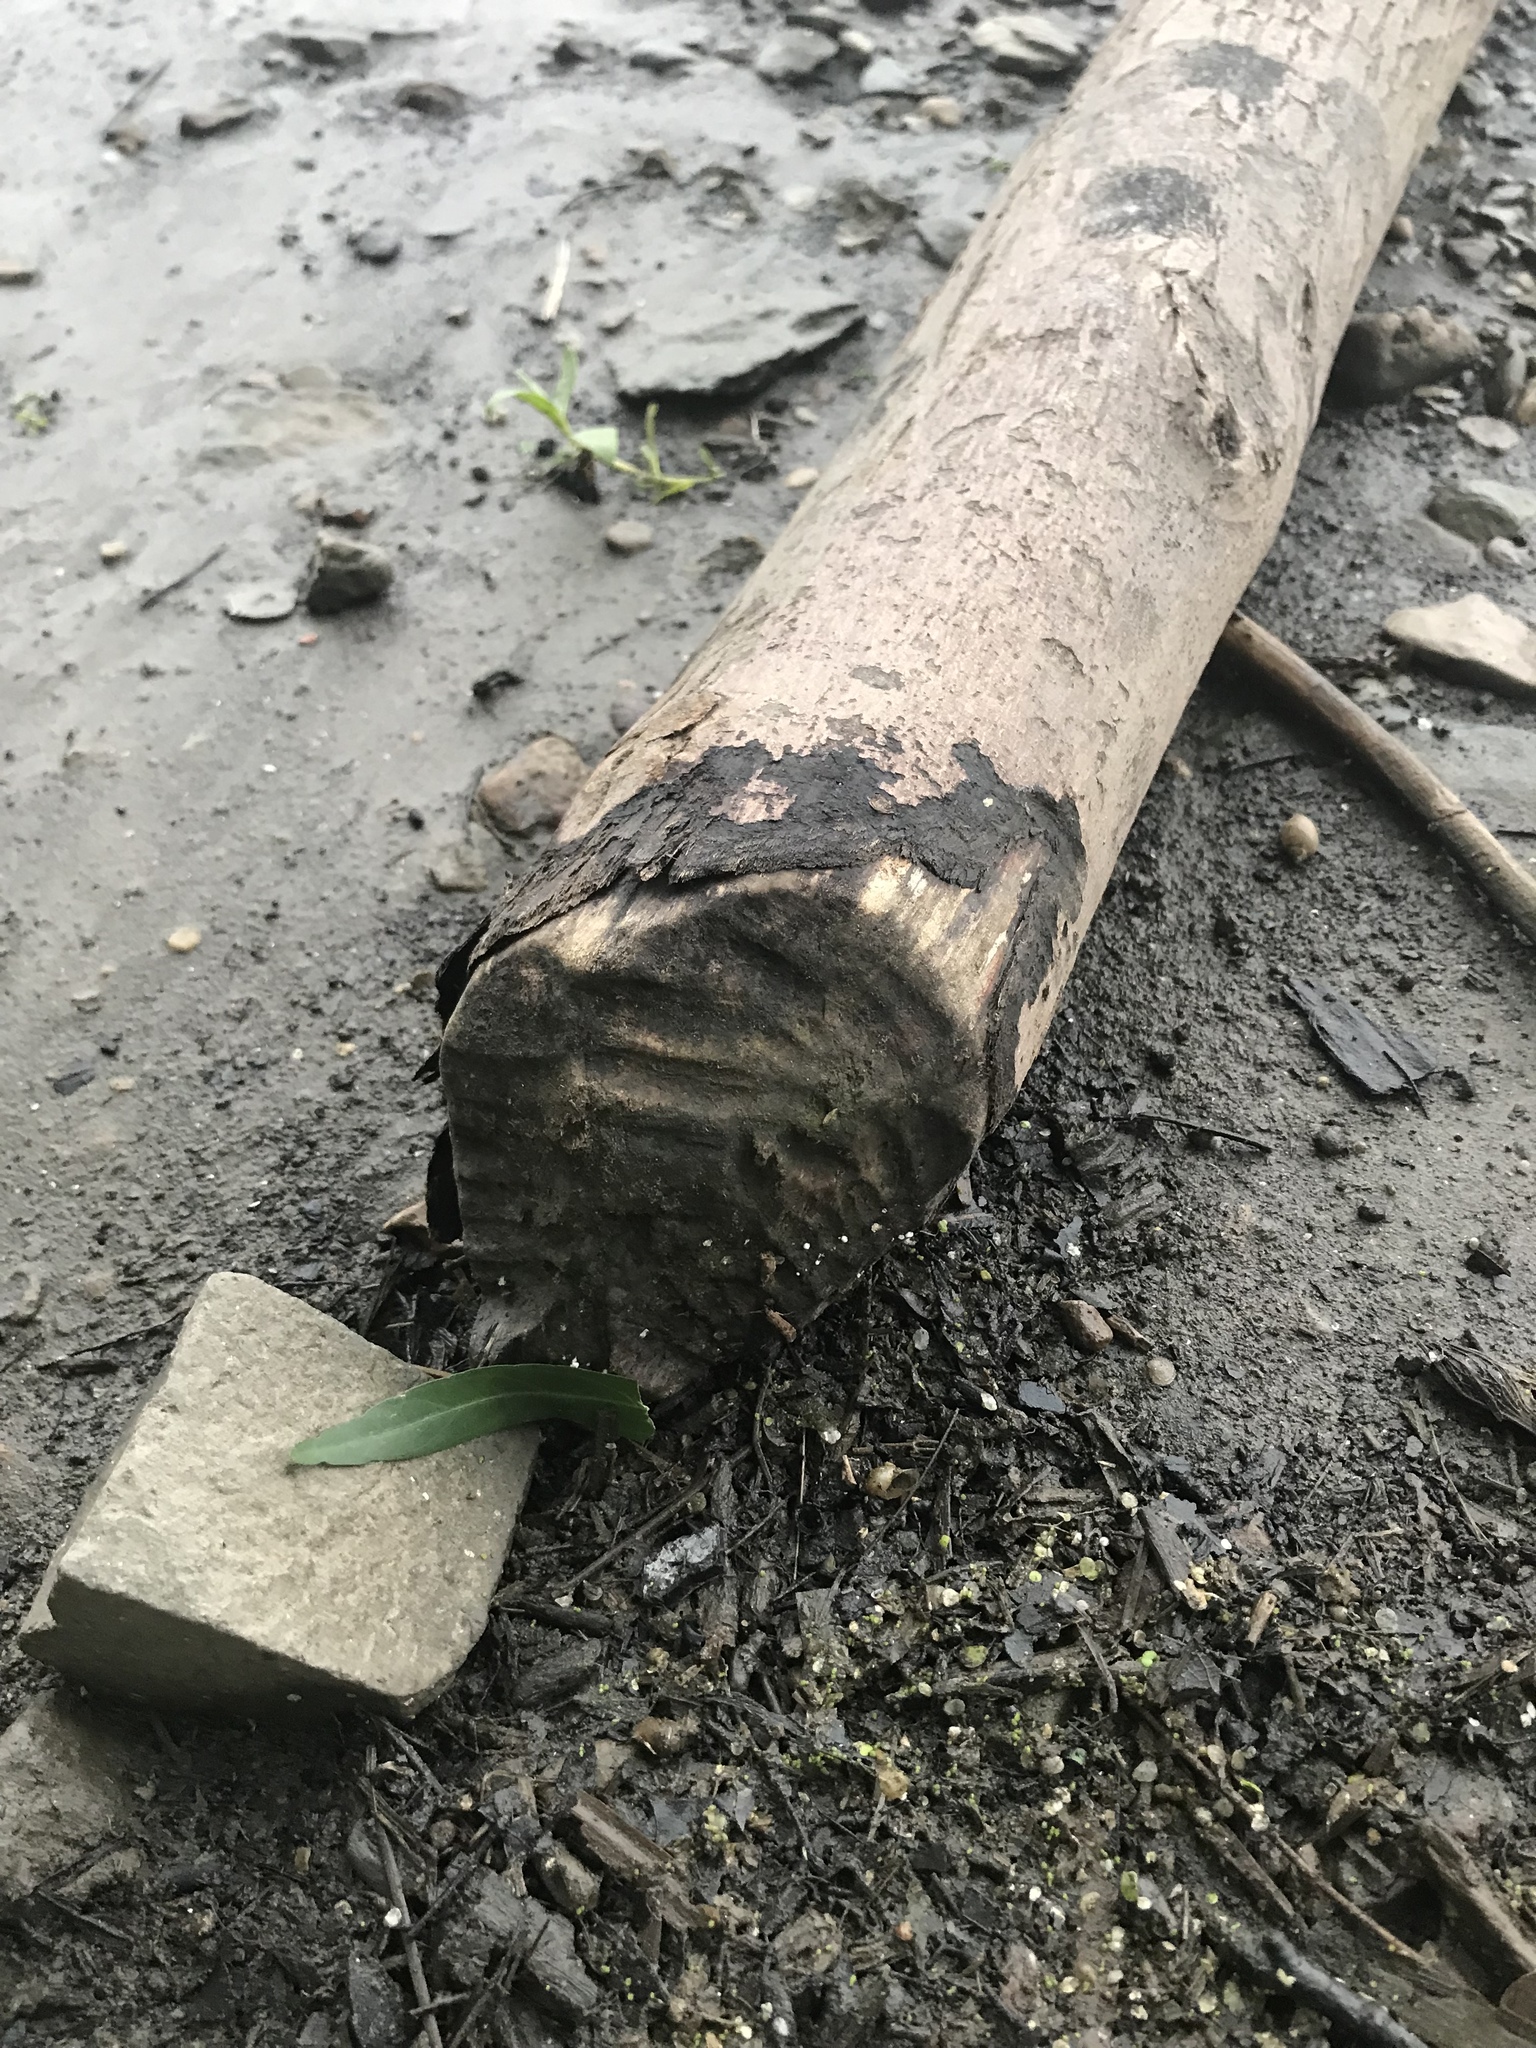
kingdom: Animalia
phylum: Chordata
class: Mammalia
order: Rodentia
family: Castoridae
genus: Castor
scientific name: Castor canadensis
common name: American beaver
